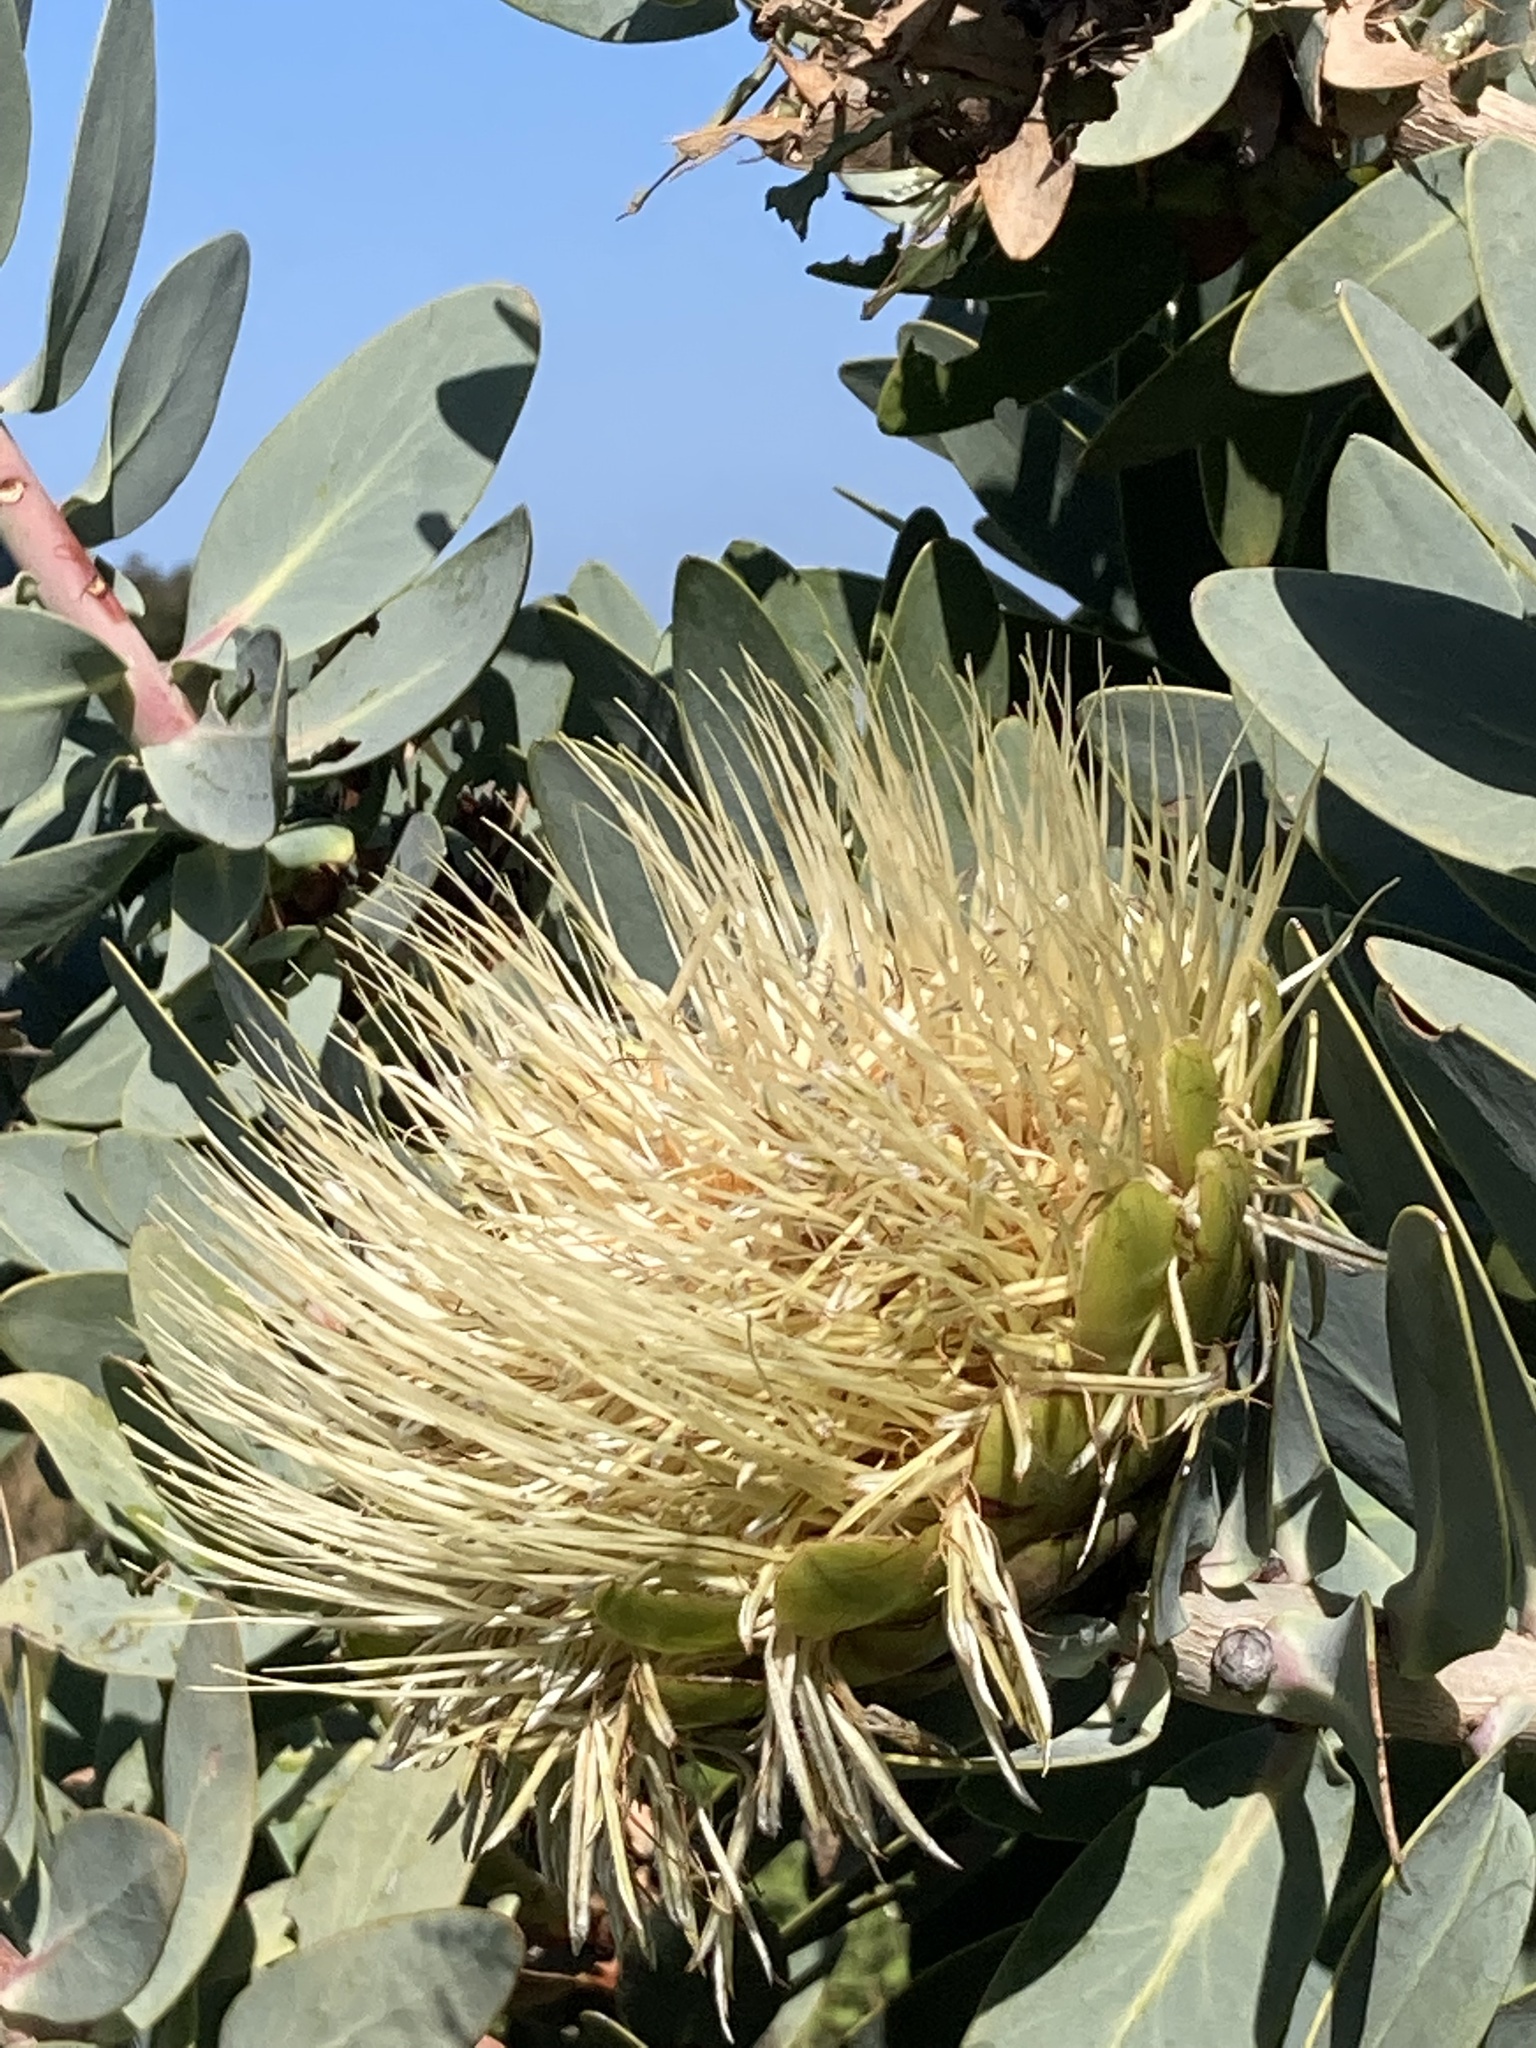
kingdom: Plantae
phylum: Tracheophyta
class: Magnoliopsida
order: Proteales
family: Proteaceae
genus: Protea
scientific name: Protea nitida
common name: Tree protea
